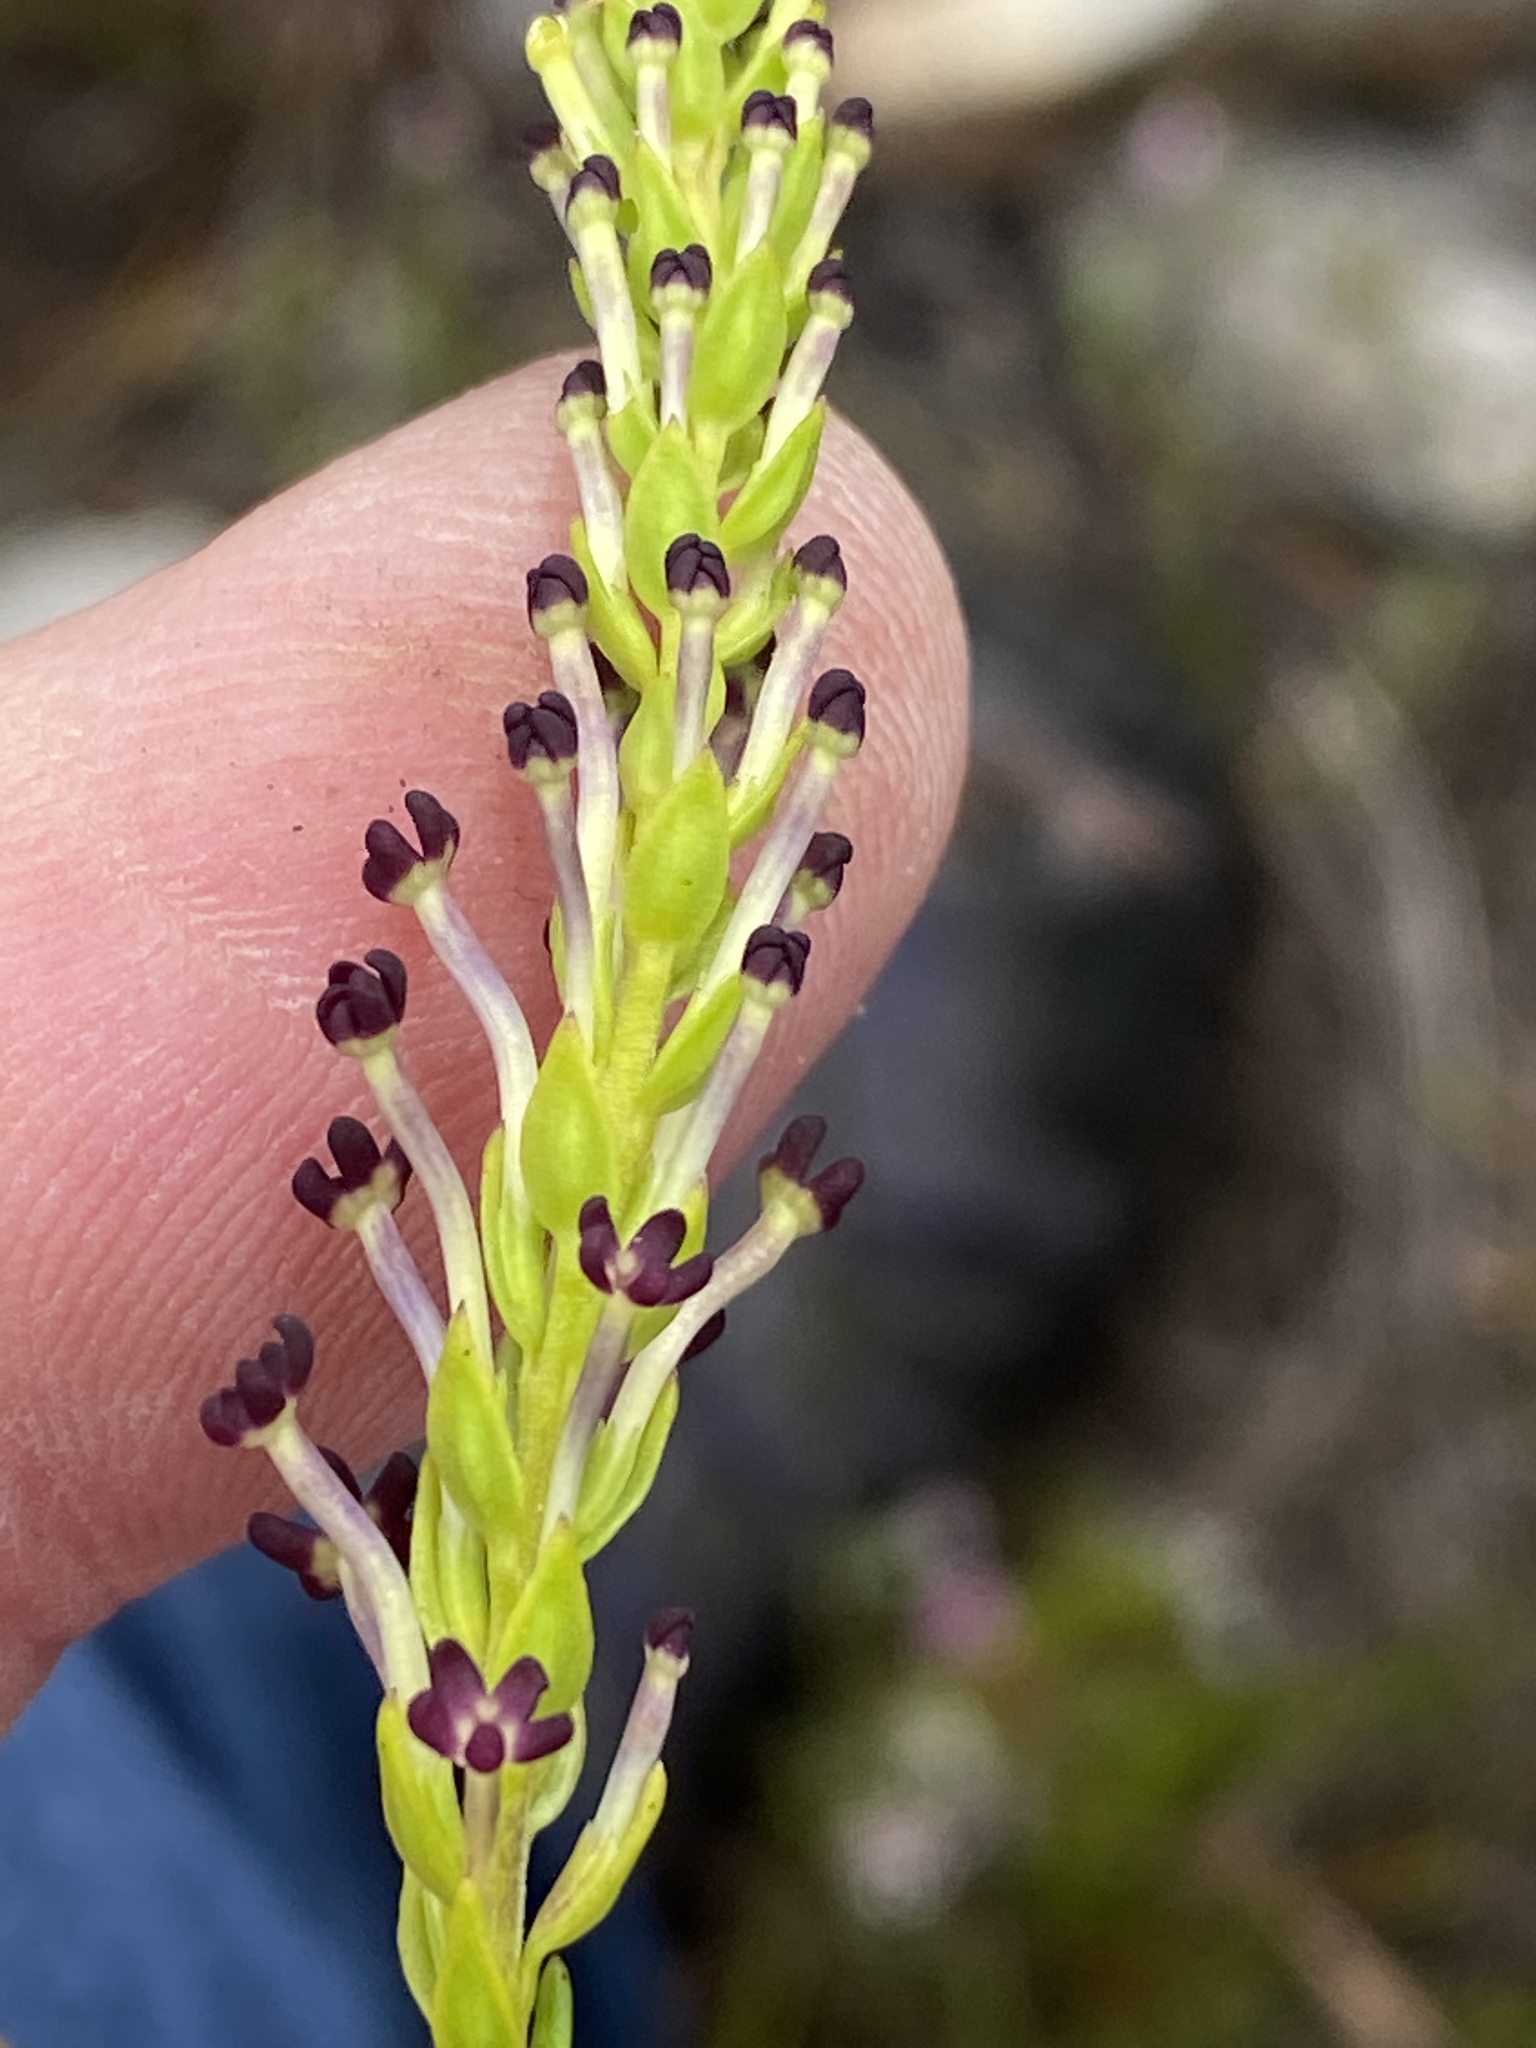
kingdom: Plantae
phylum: Tracheophyta
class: Magnoliopsida
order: Lamiales
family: Scrophulariaceae
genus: Microdon
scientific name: Microdon dubius
